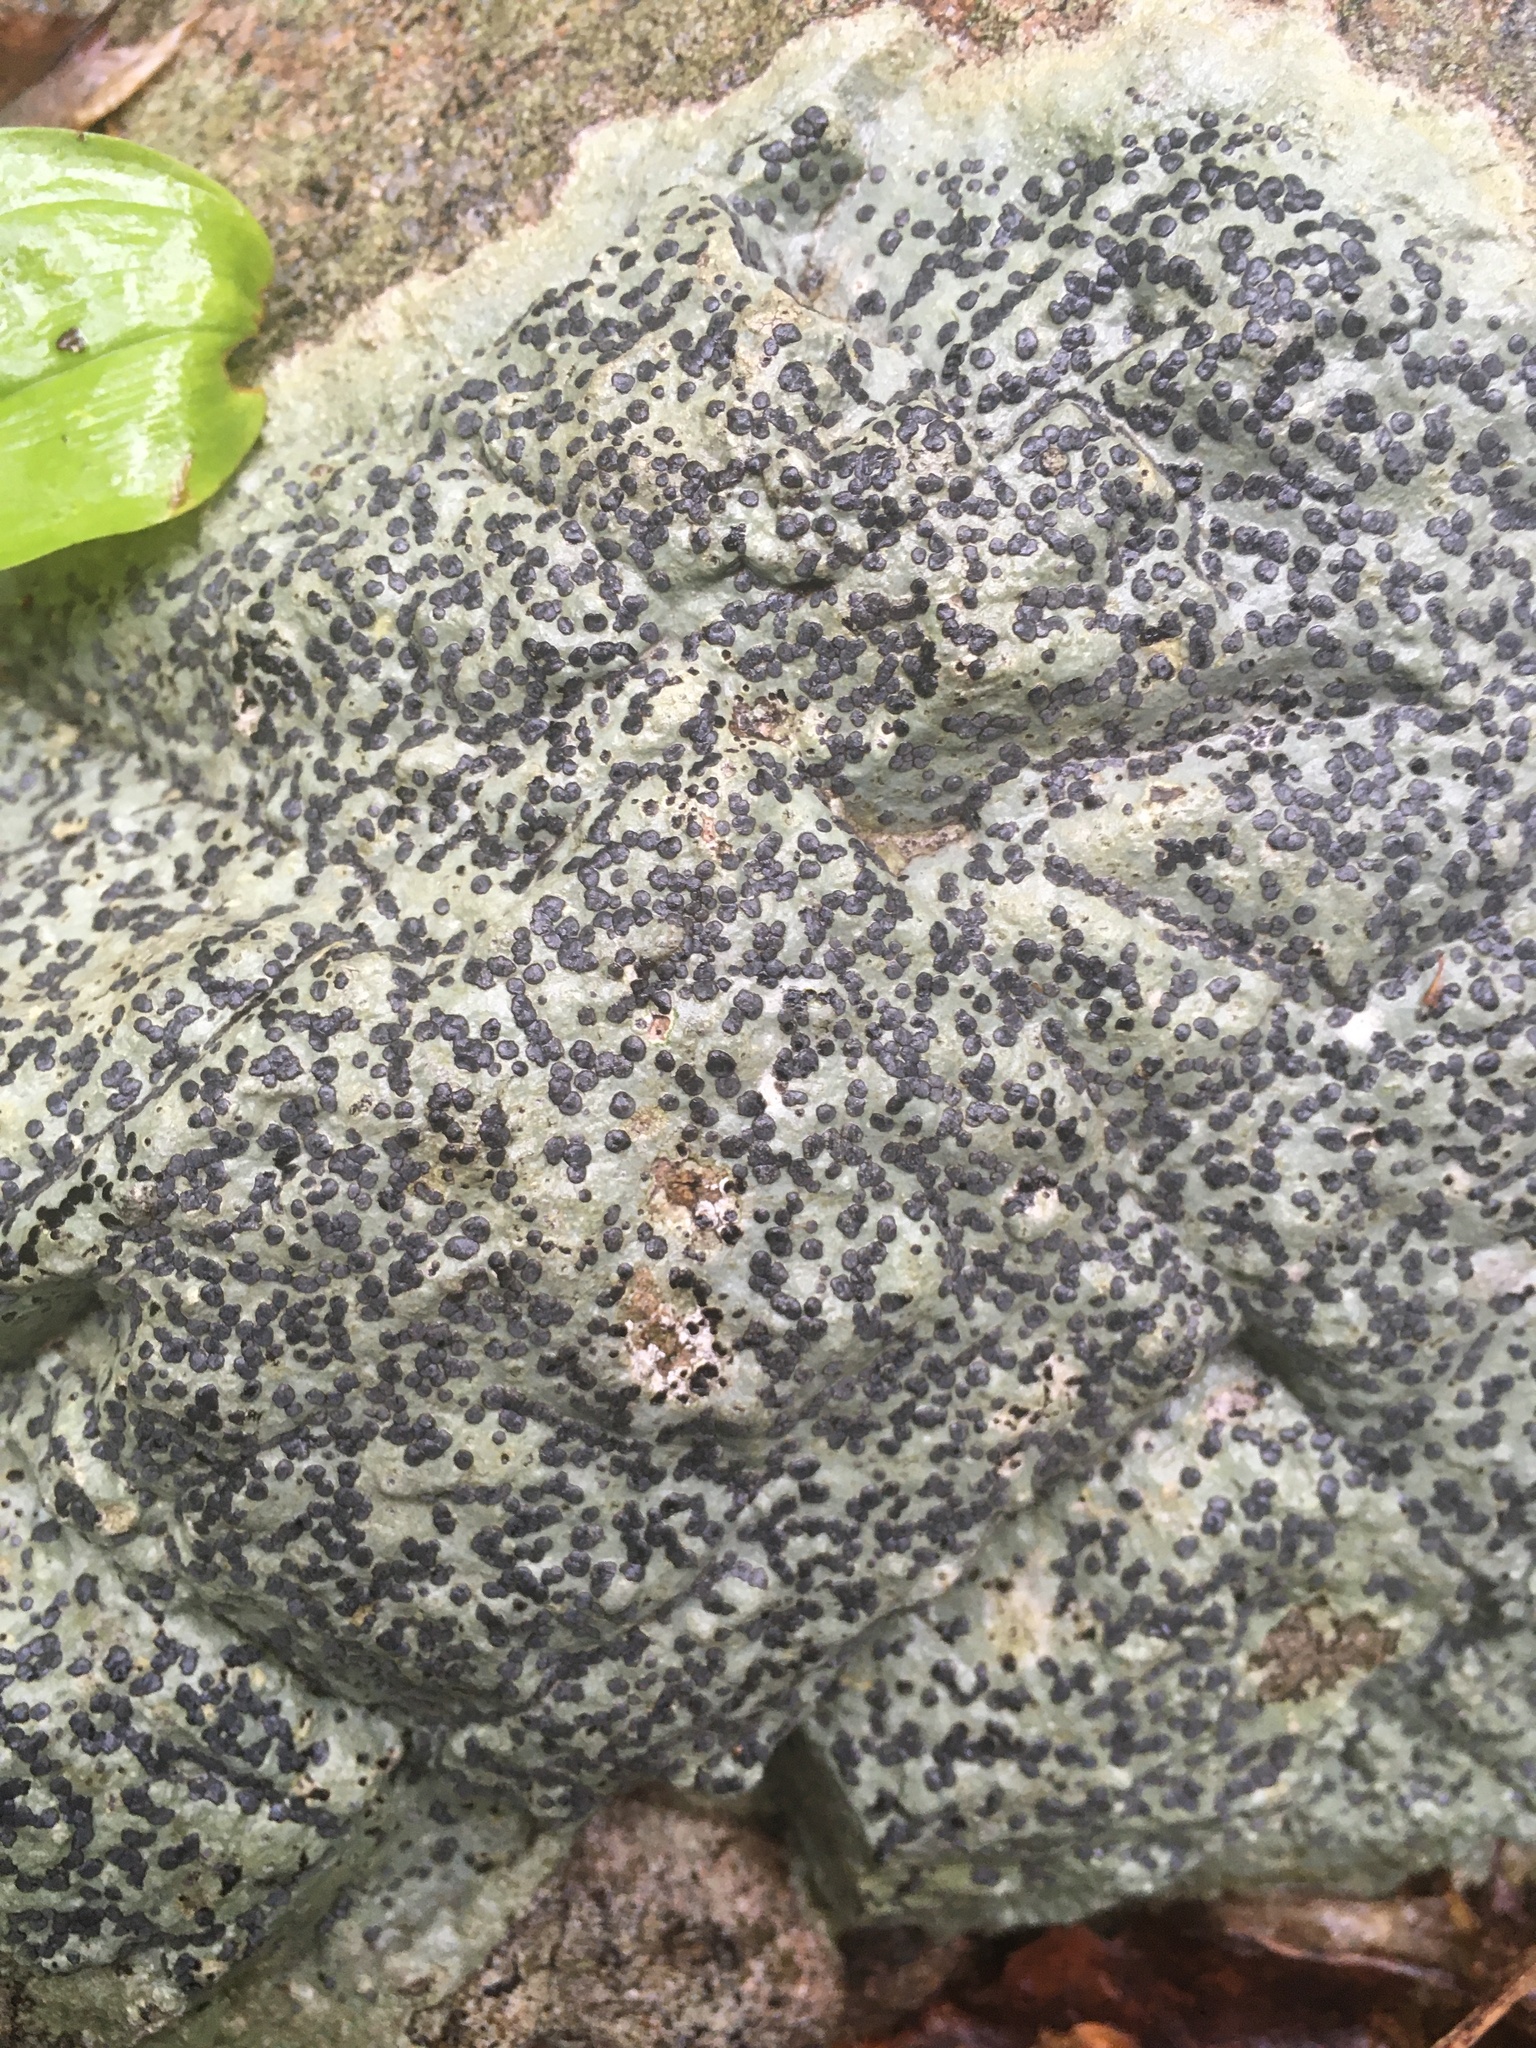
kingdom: Fungi
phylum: Ascomycota
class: Lecanoromycetes
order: Lecideales
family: Lecideaceae
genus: Porpidia
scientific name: Porpidia albocaerulescens
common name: Smokey-eyed boulder lichen
